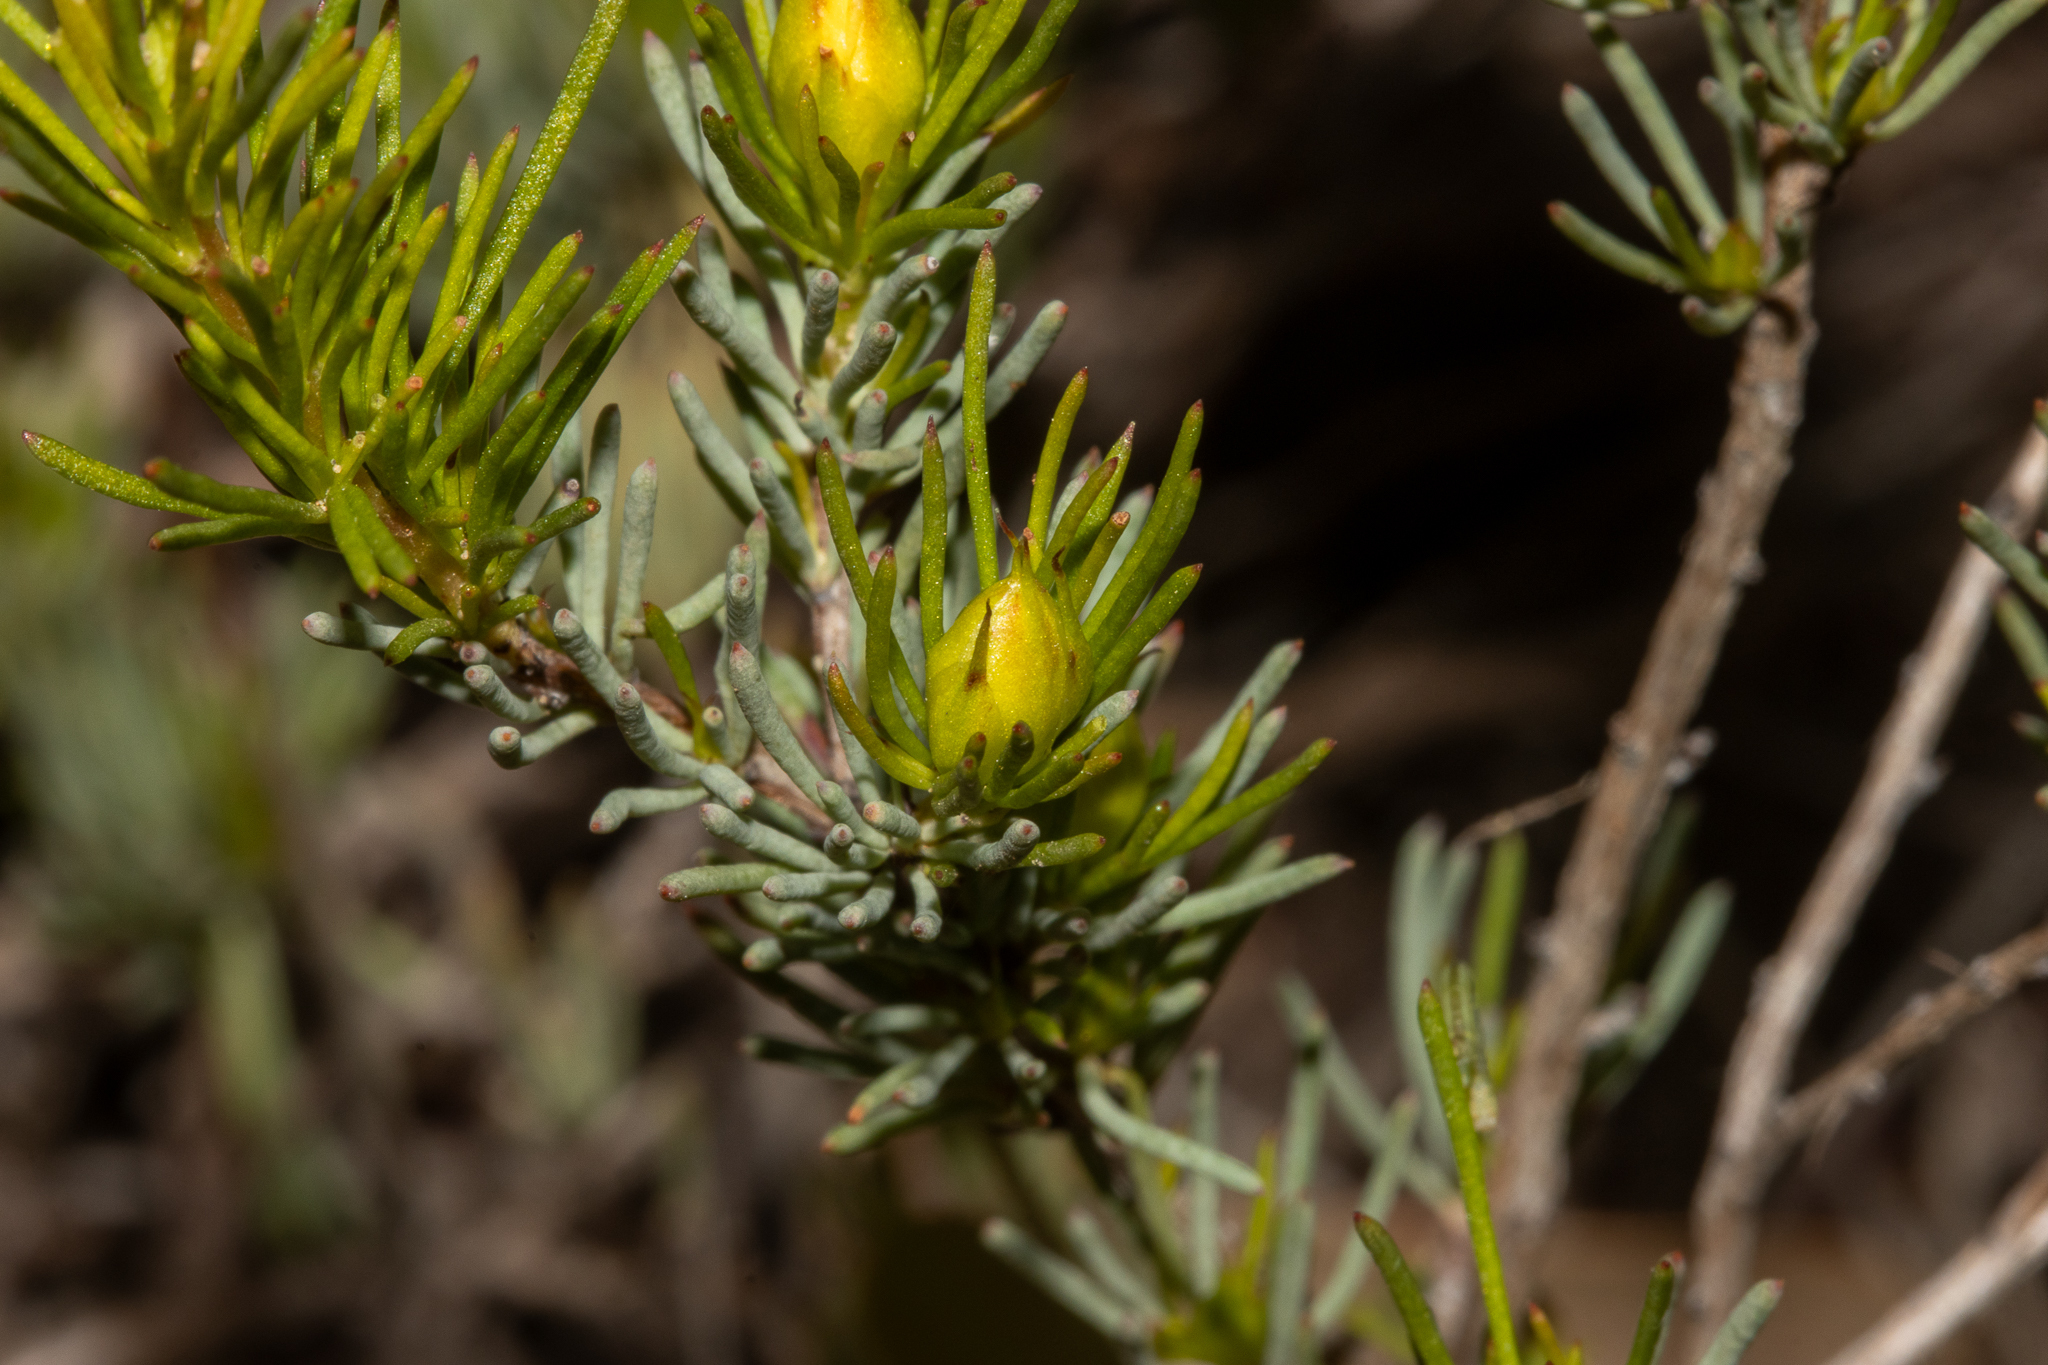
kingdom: Plantae
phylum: Tracheophyta
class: Magnoliopsida
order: Dilleniales
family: Dilleniaceae
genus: Hibbertia
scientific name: Hibbertia hibbertioides
